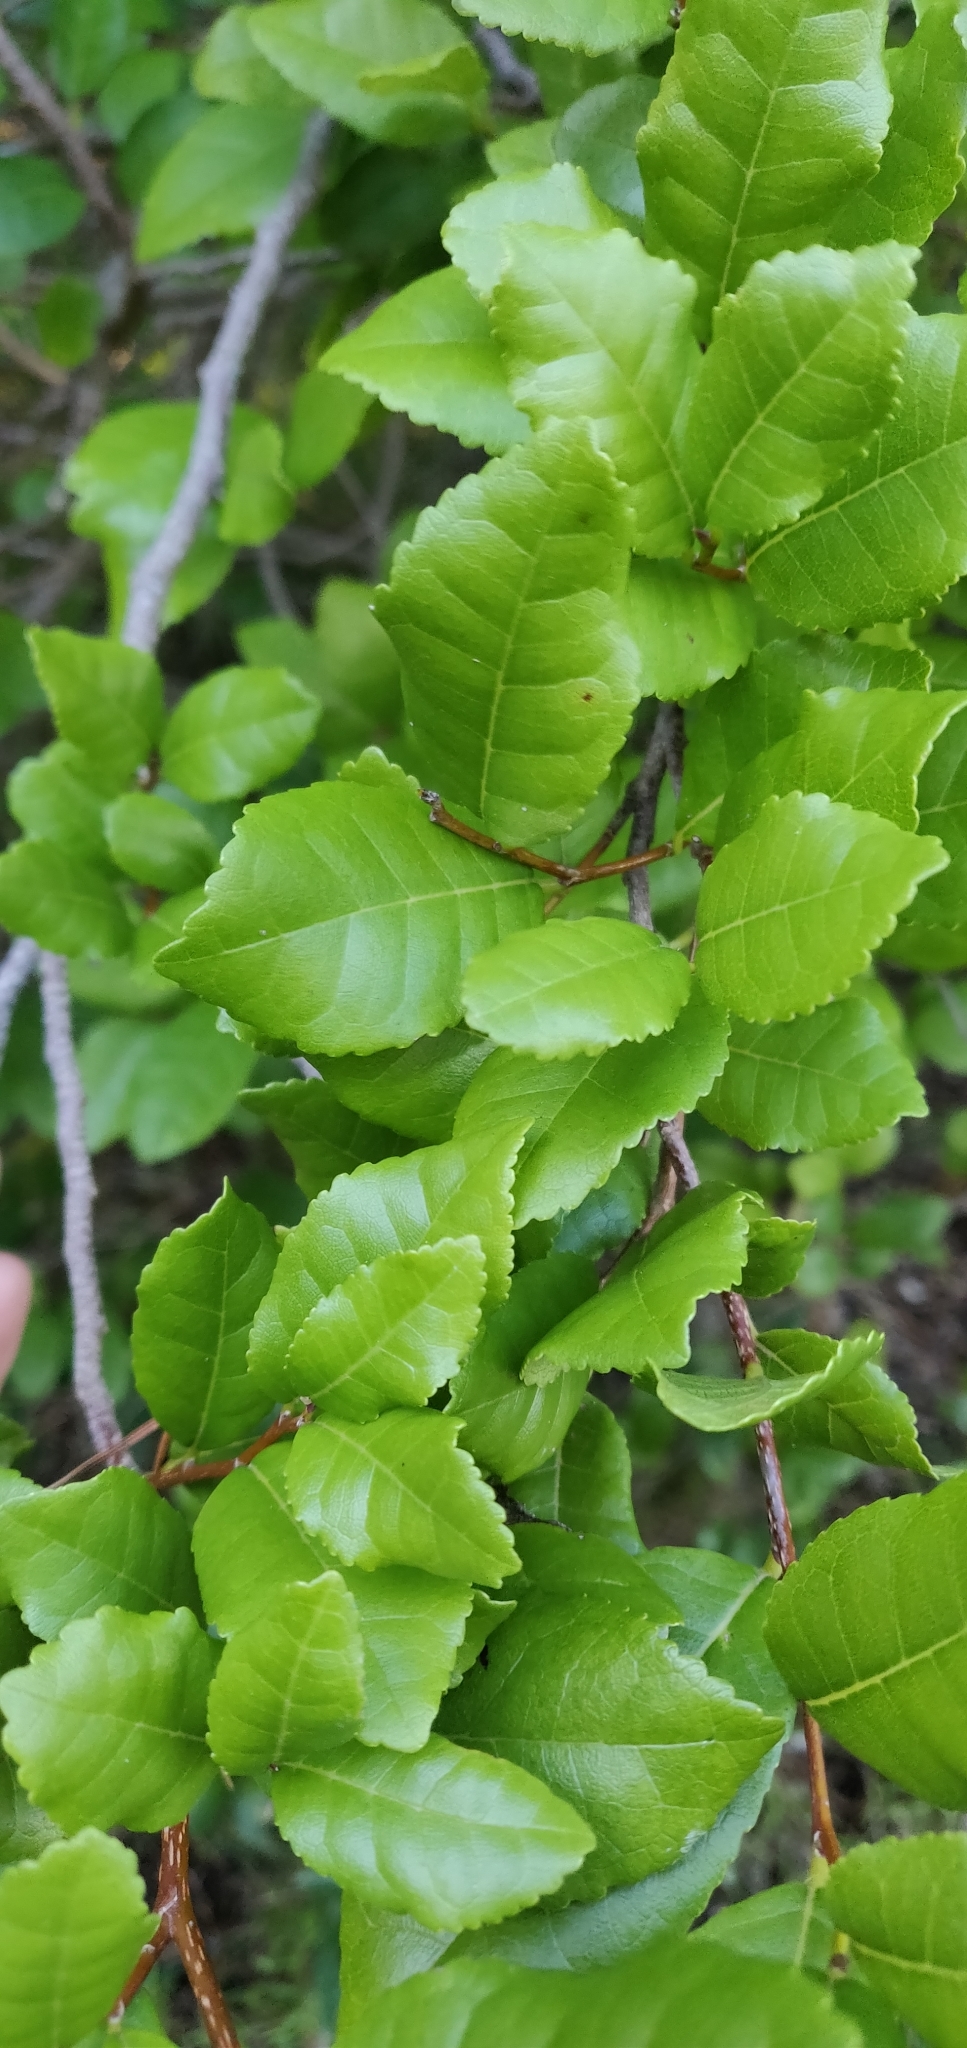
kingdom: Plantae
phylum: Tracheophyta
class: Magnoliopsida
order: Rosales
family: Moraceae
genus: Paratrophis
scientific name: Paratrophis banksii
